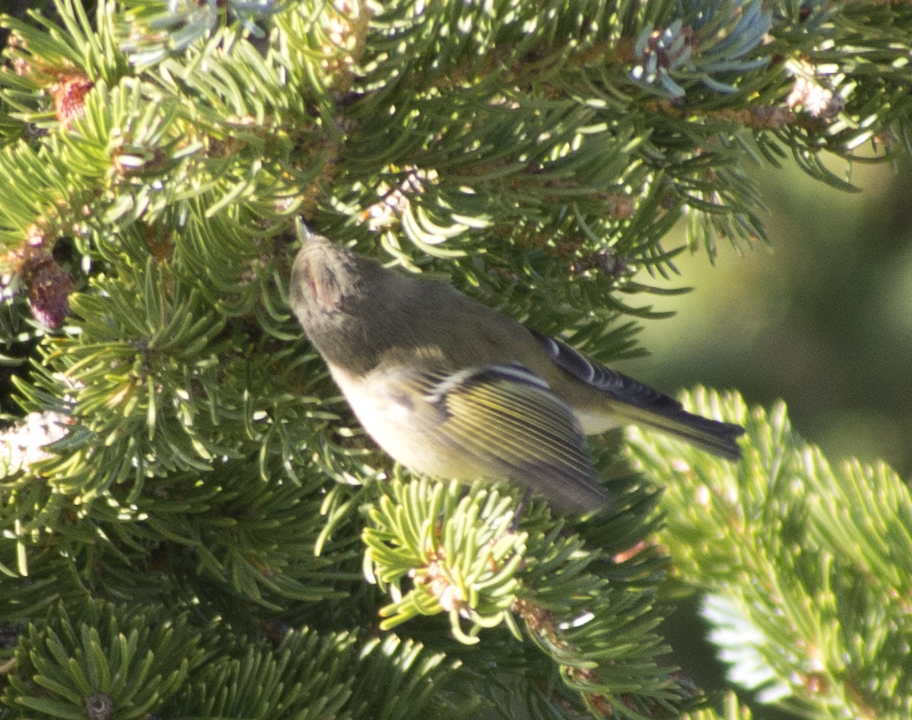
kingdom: Animalia
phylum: Chordata
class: Aves
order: Passeriformes
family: Regulidae
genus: Regulus
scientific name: Regulus calendula
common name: Ruby-crowned kinglet
